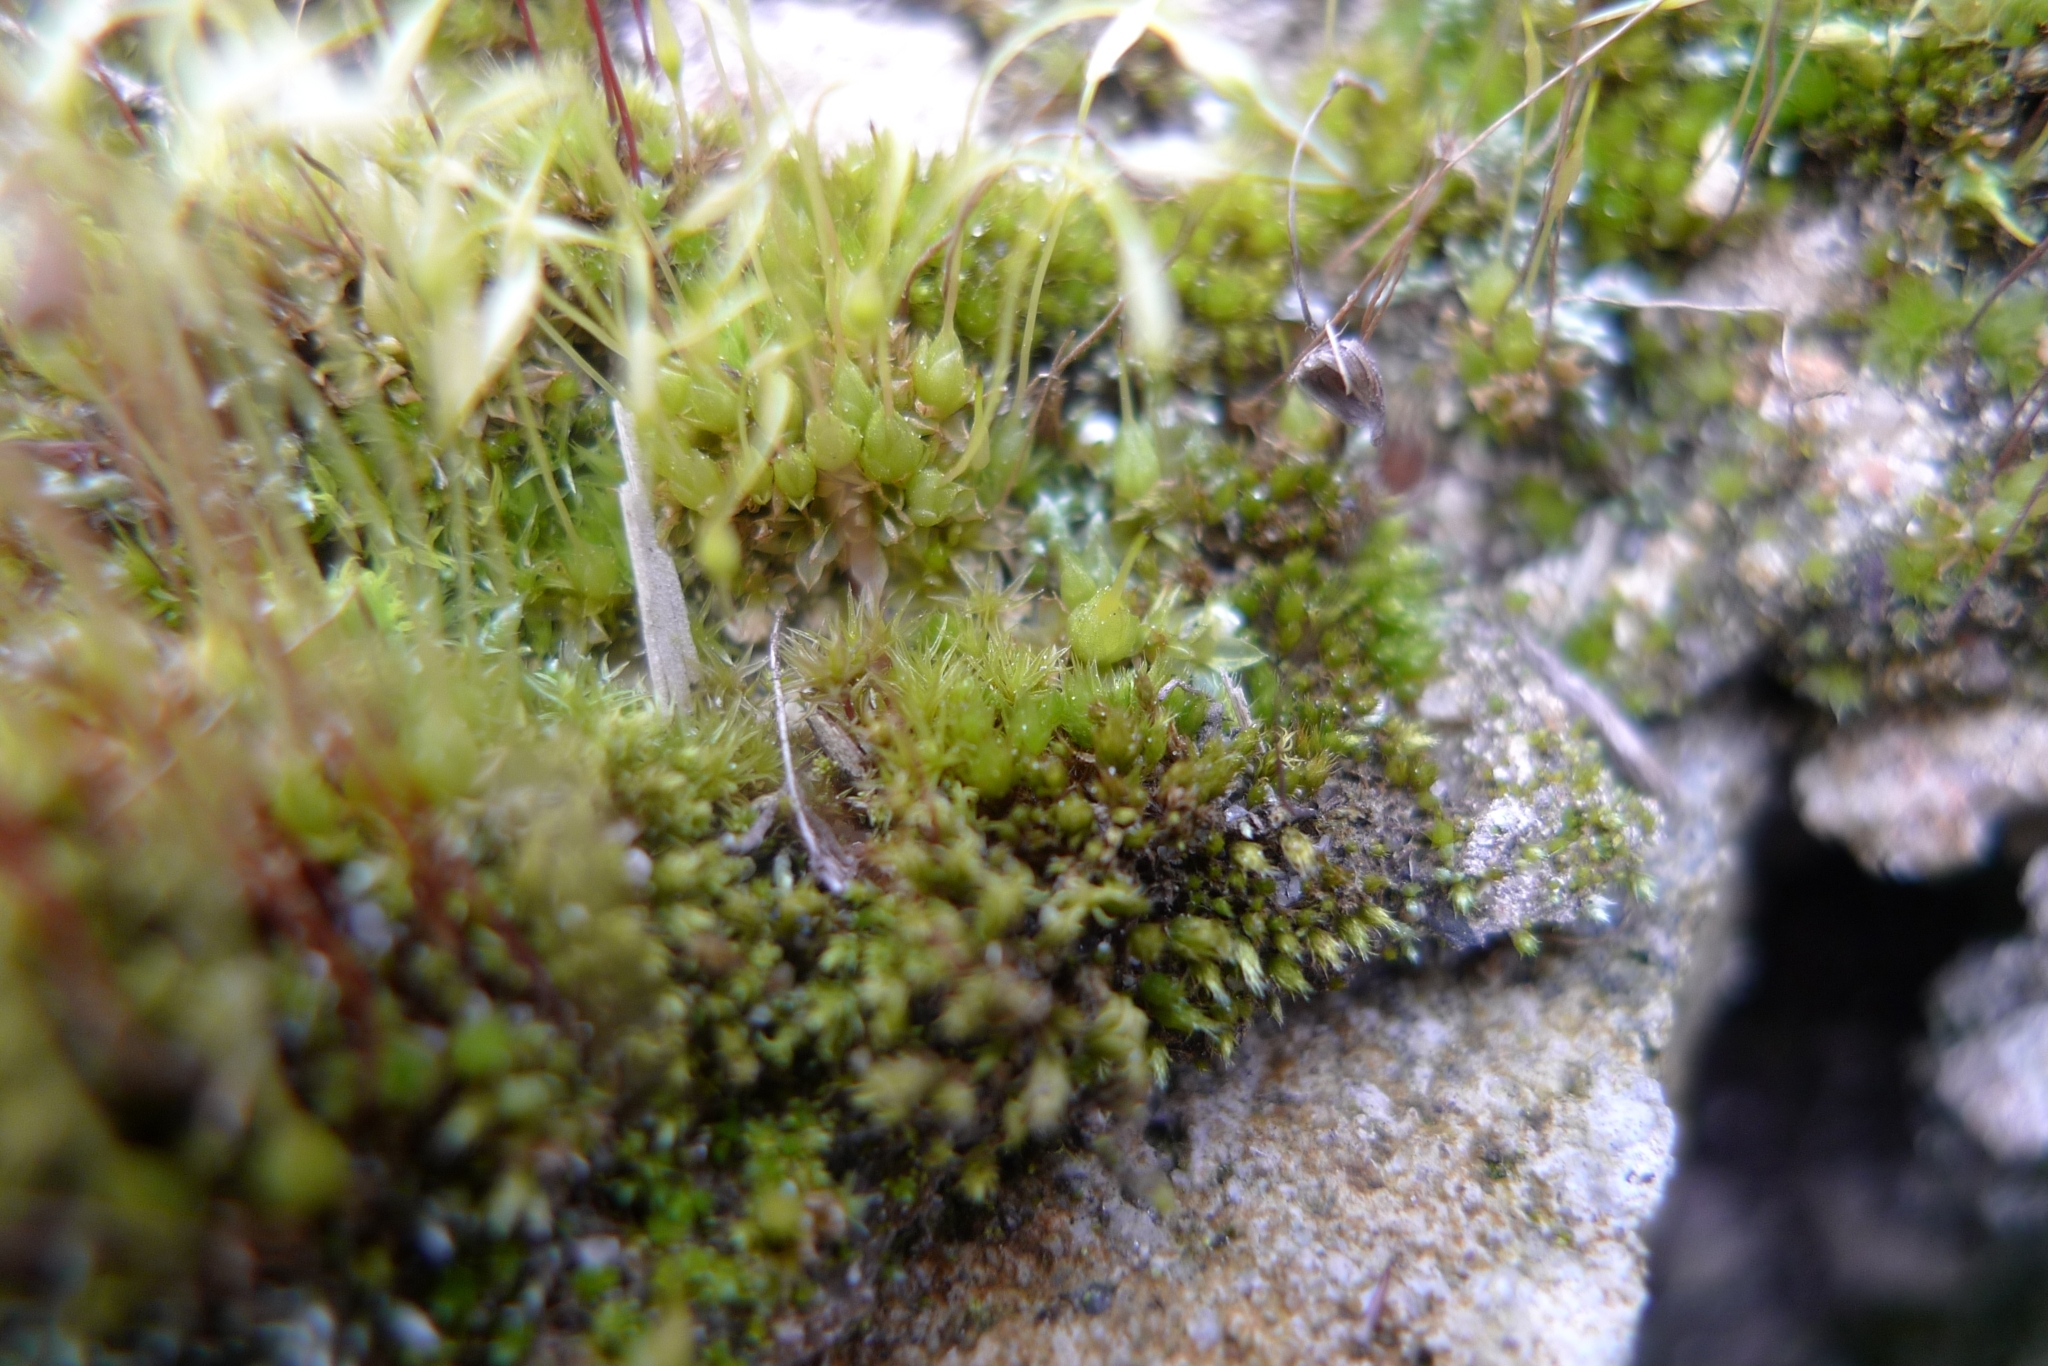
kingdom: Plantae
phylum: Bryophyta
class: Bryopsida
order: Funariales
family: Funariaceae
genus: Funaria
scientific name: Funaria hygrometrica
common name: Common cord moss
